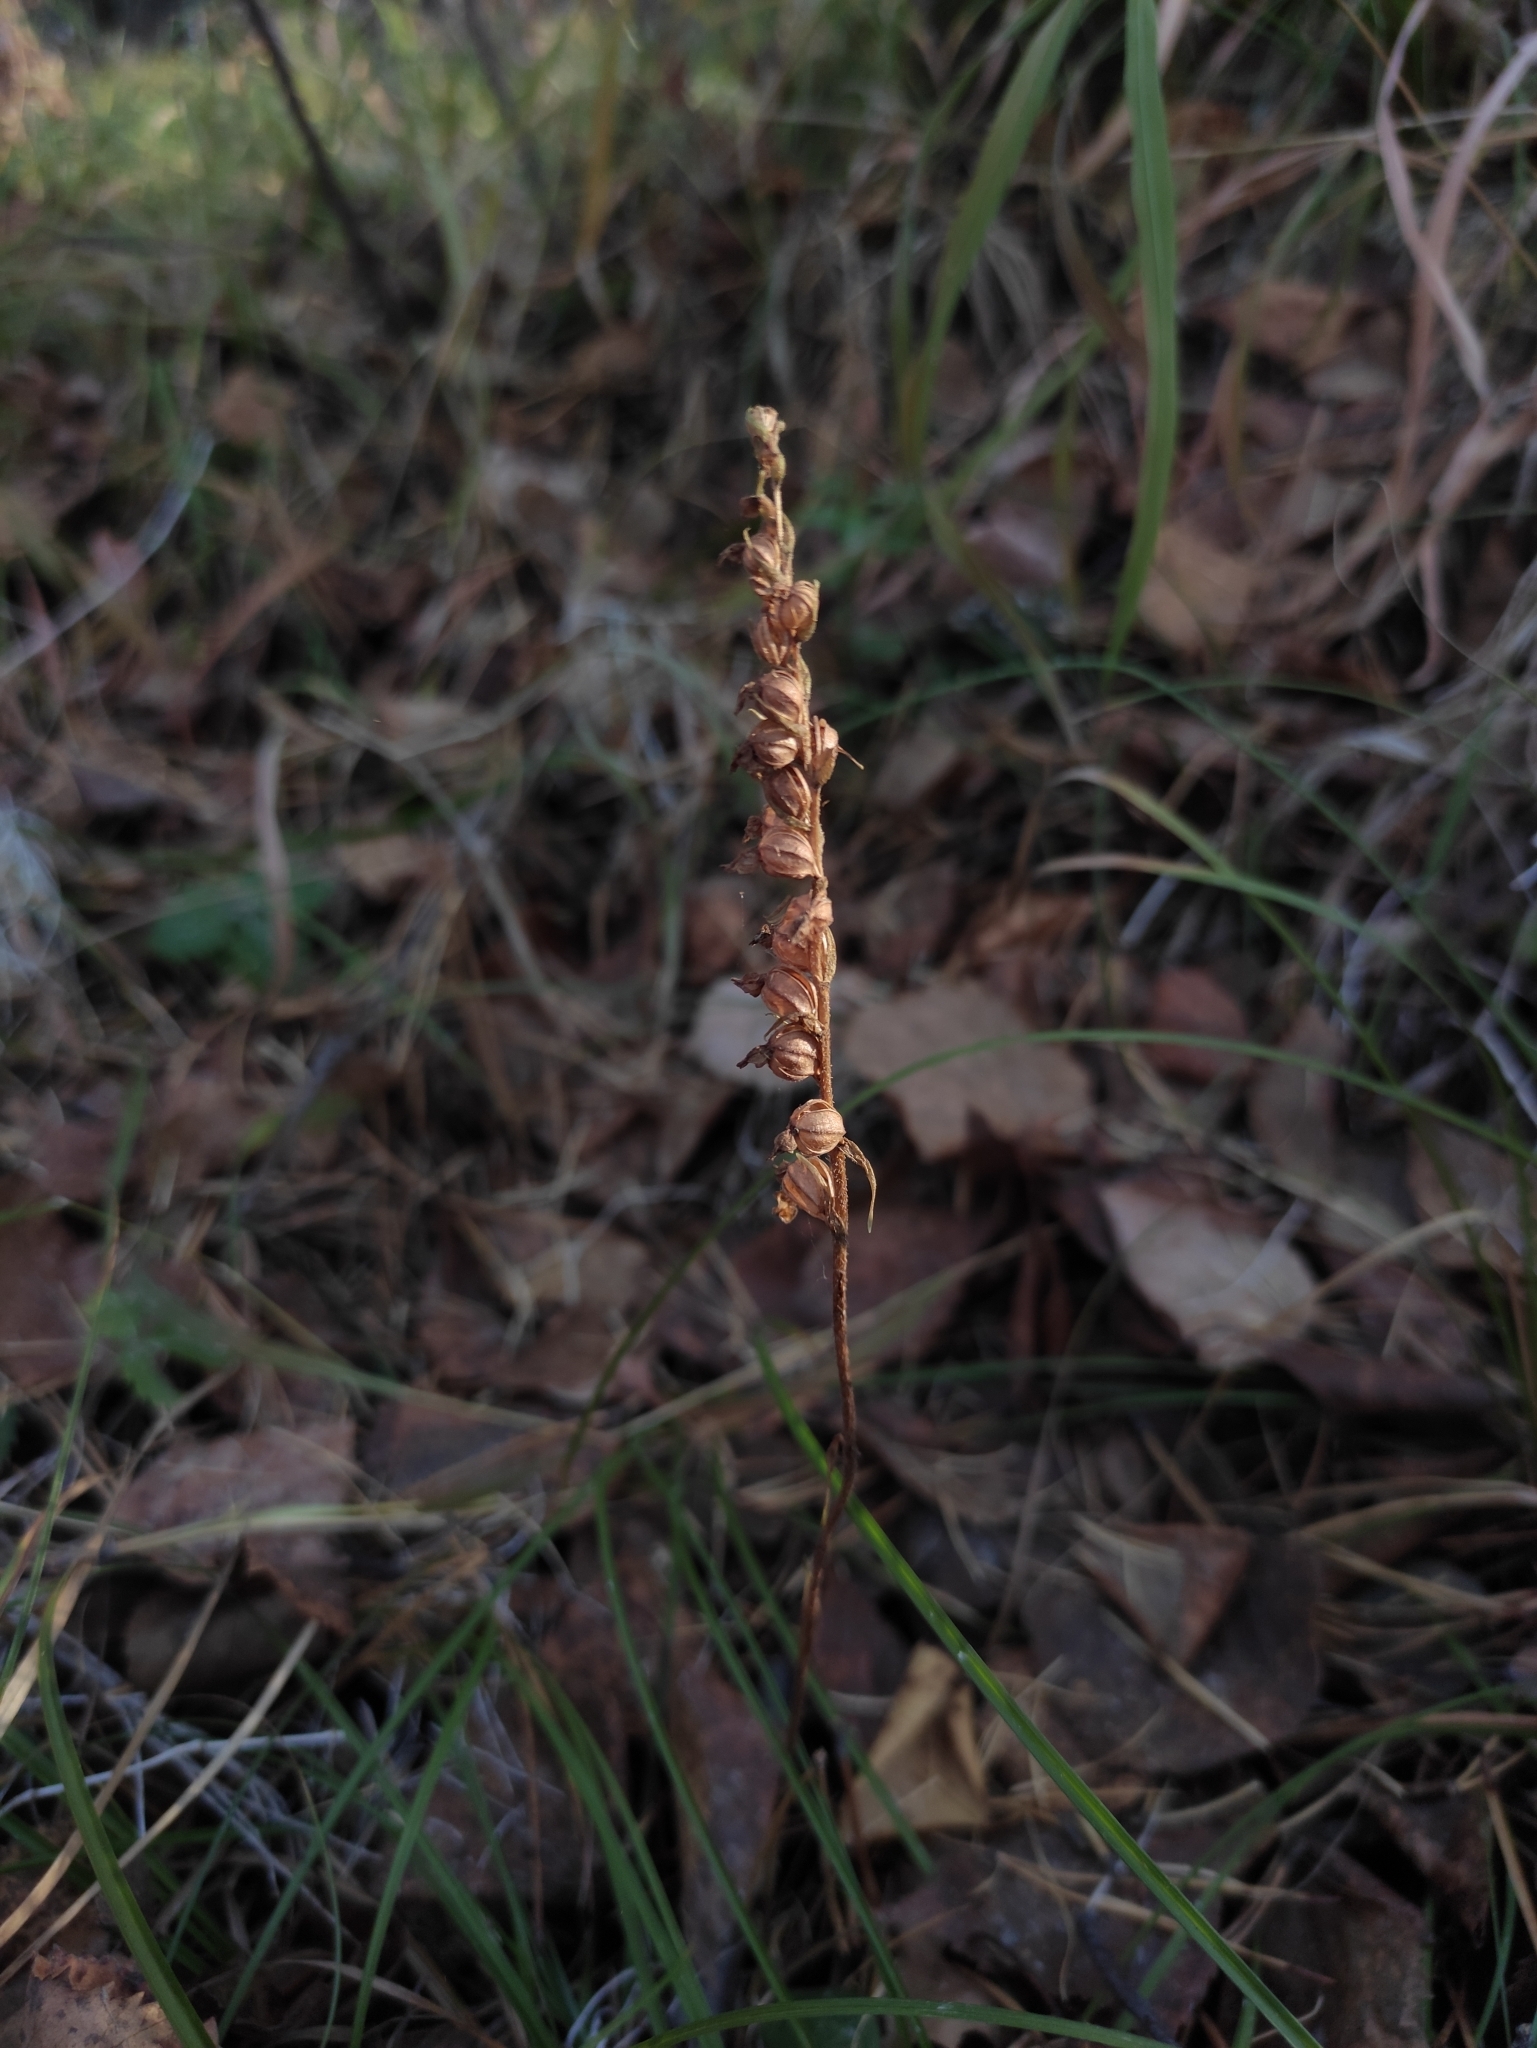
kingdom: Plantae
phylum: Tracheophyta
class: Liliopsida
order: Asparagales
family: Orchidaceae
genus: Goodyera
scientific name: Goodyera repens
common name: Creeping lady's-tresses
